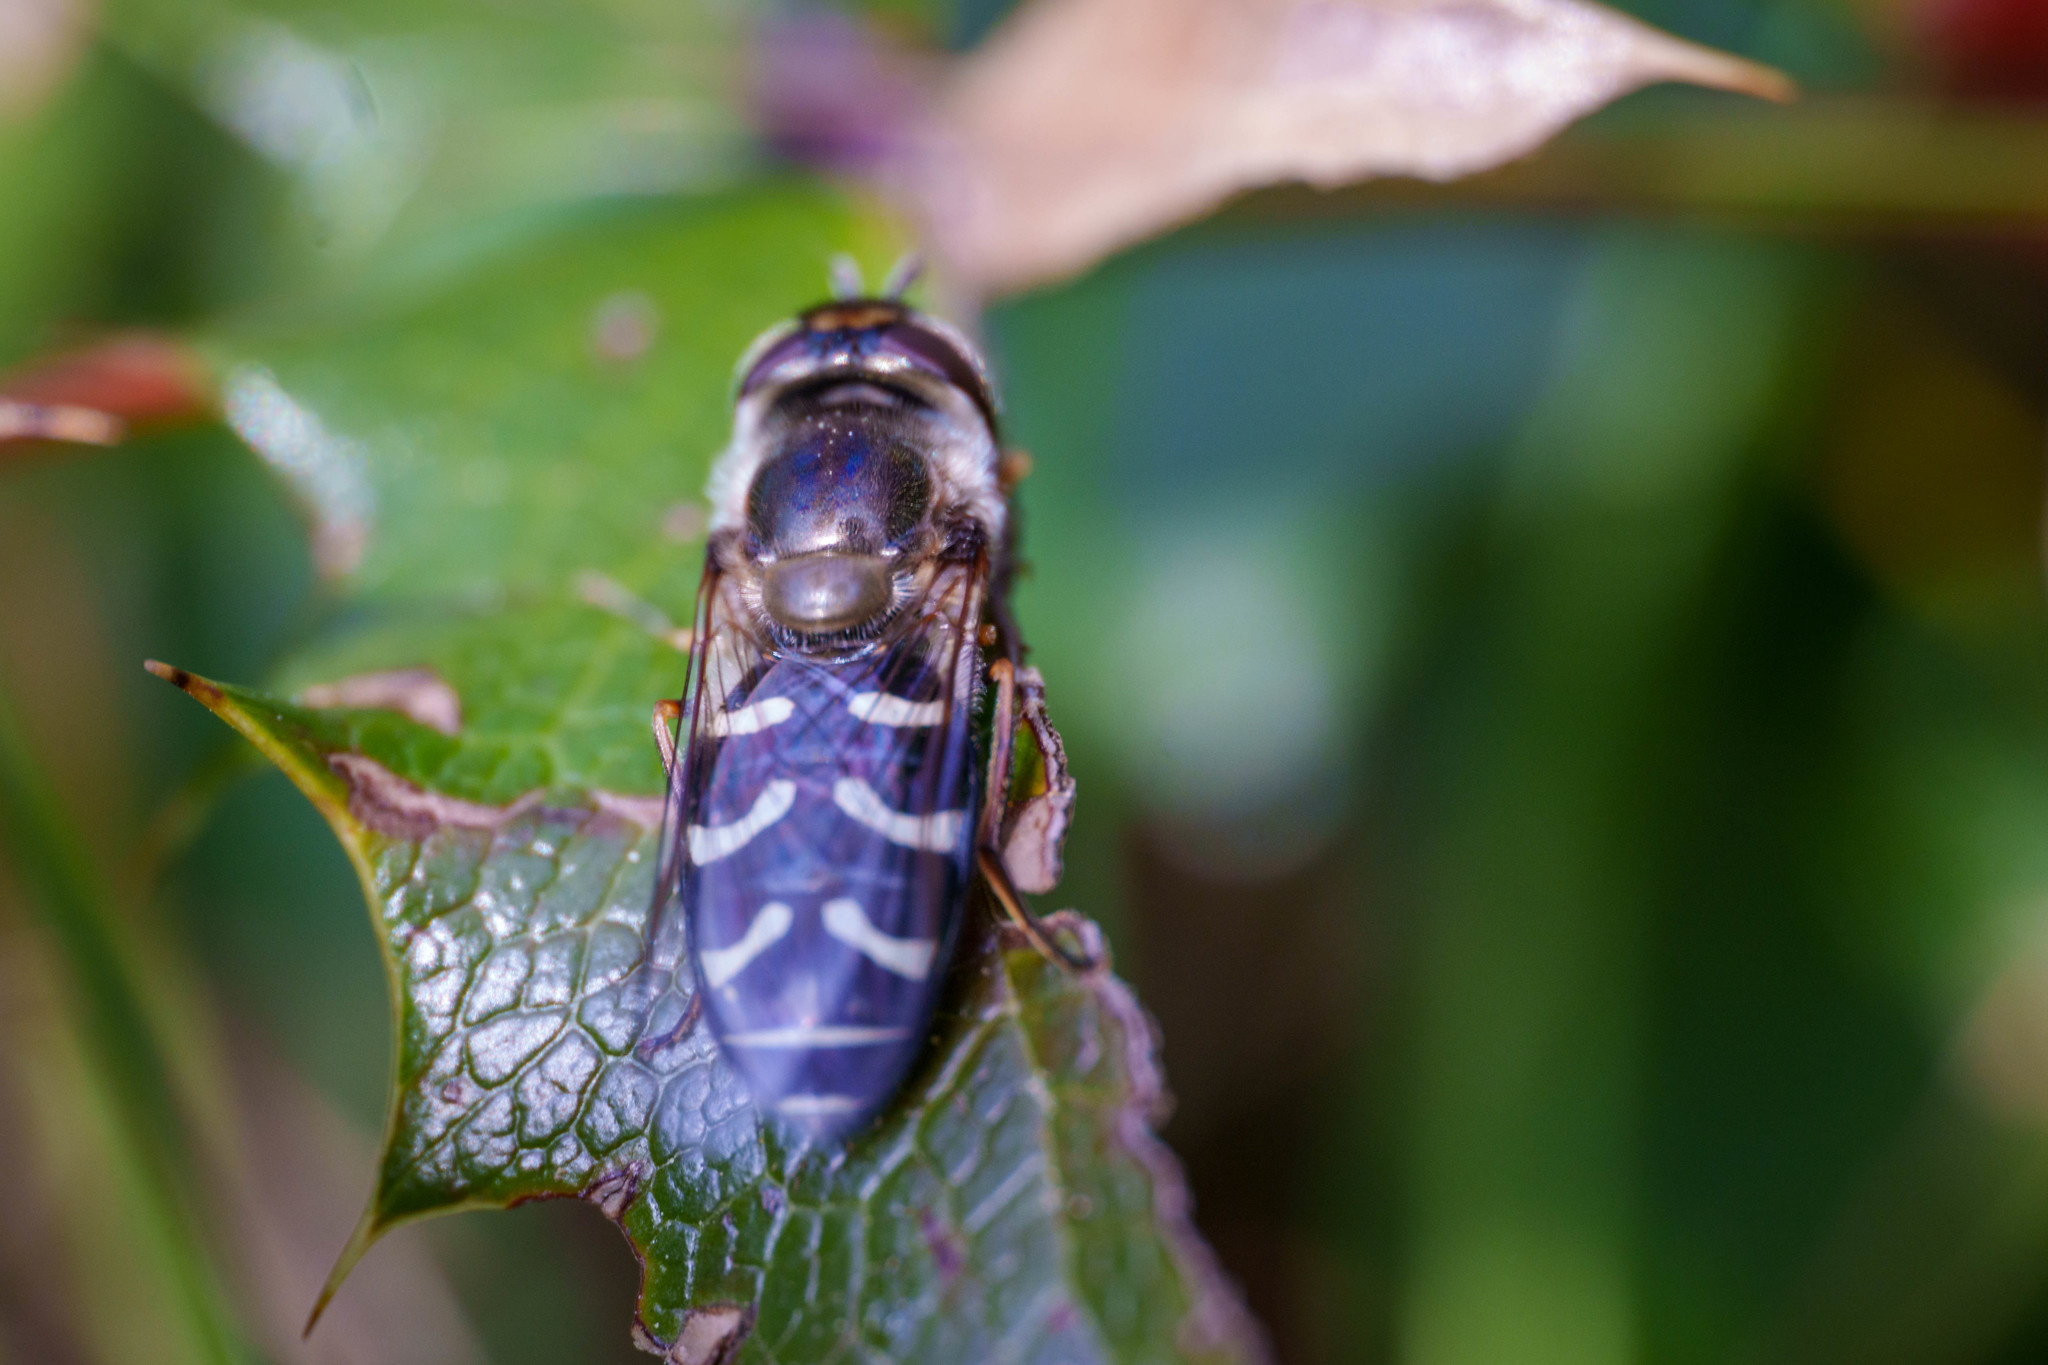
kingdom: Animalia
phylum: Arthropoda
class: Insecta
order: Diptera
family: Syrphidae
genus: Scaeva
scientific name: Scaeva affinis
